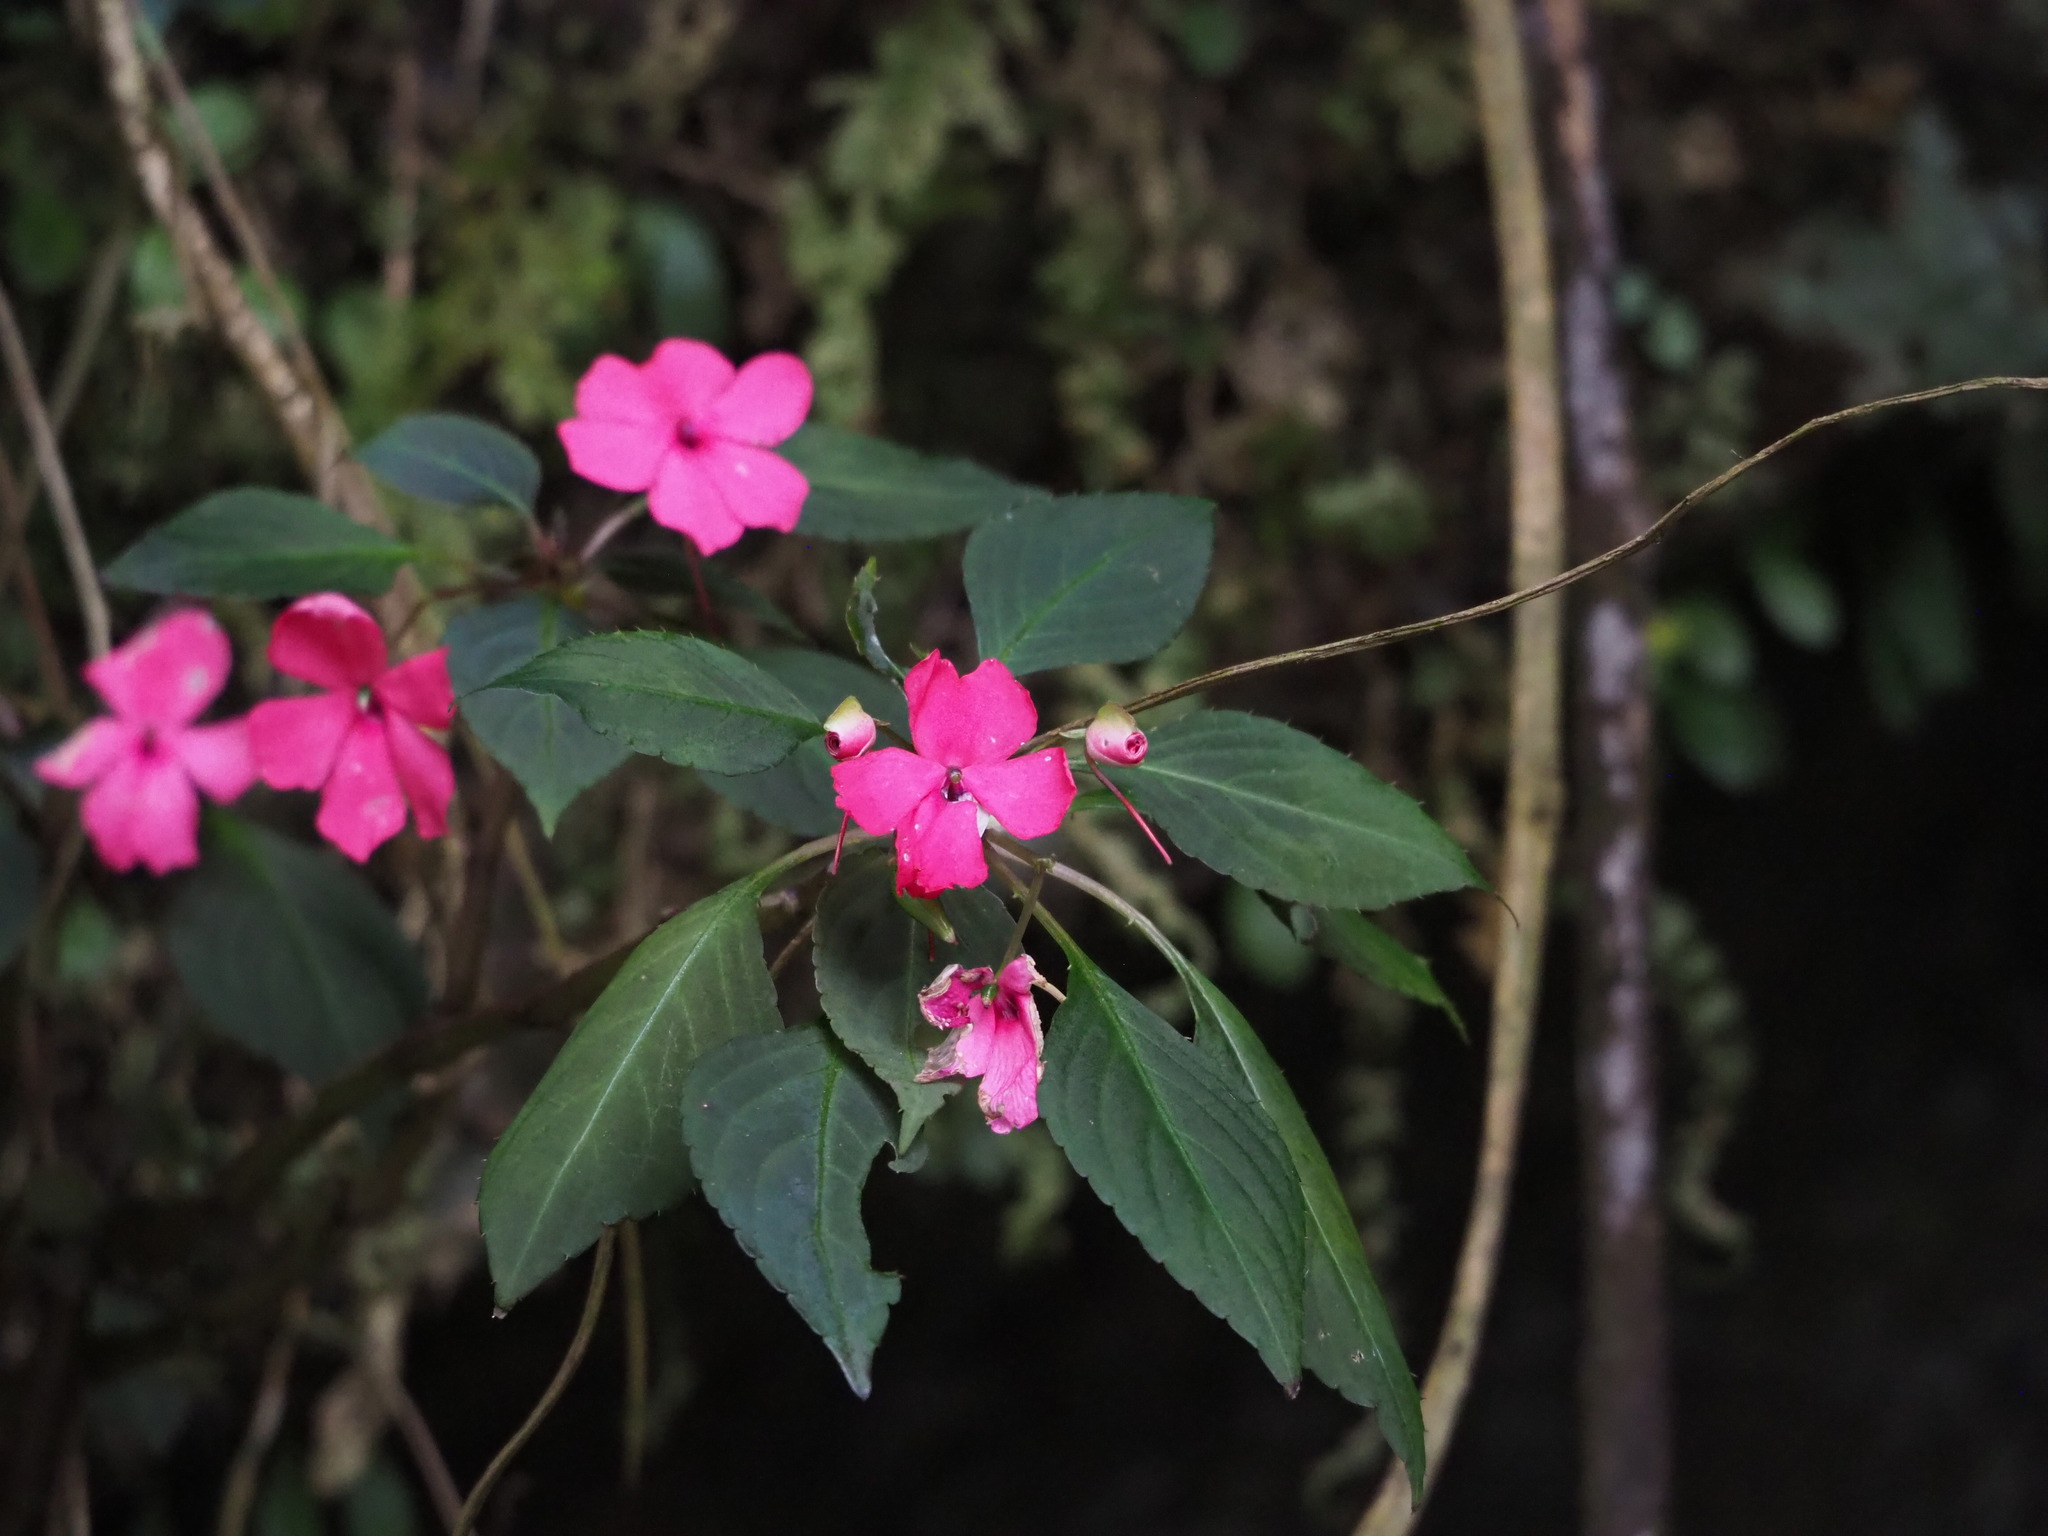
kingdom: Plantae
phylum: Tracheophyta
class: Magnoliopsida
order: Ericales
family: Balsaminaceae
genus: Impatiens
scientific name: Impatiens walleriana
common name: Buzzy lizzy
